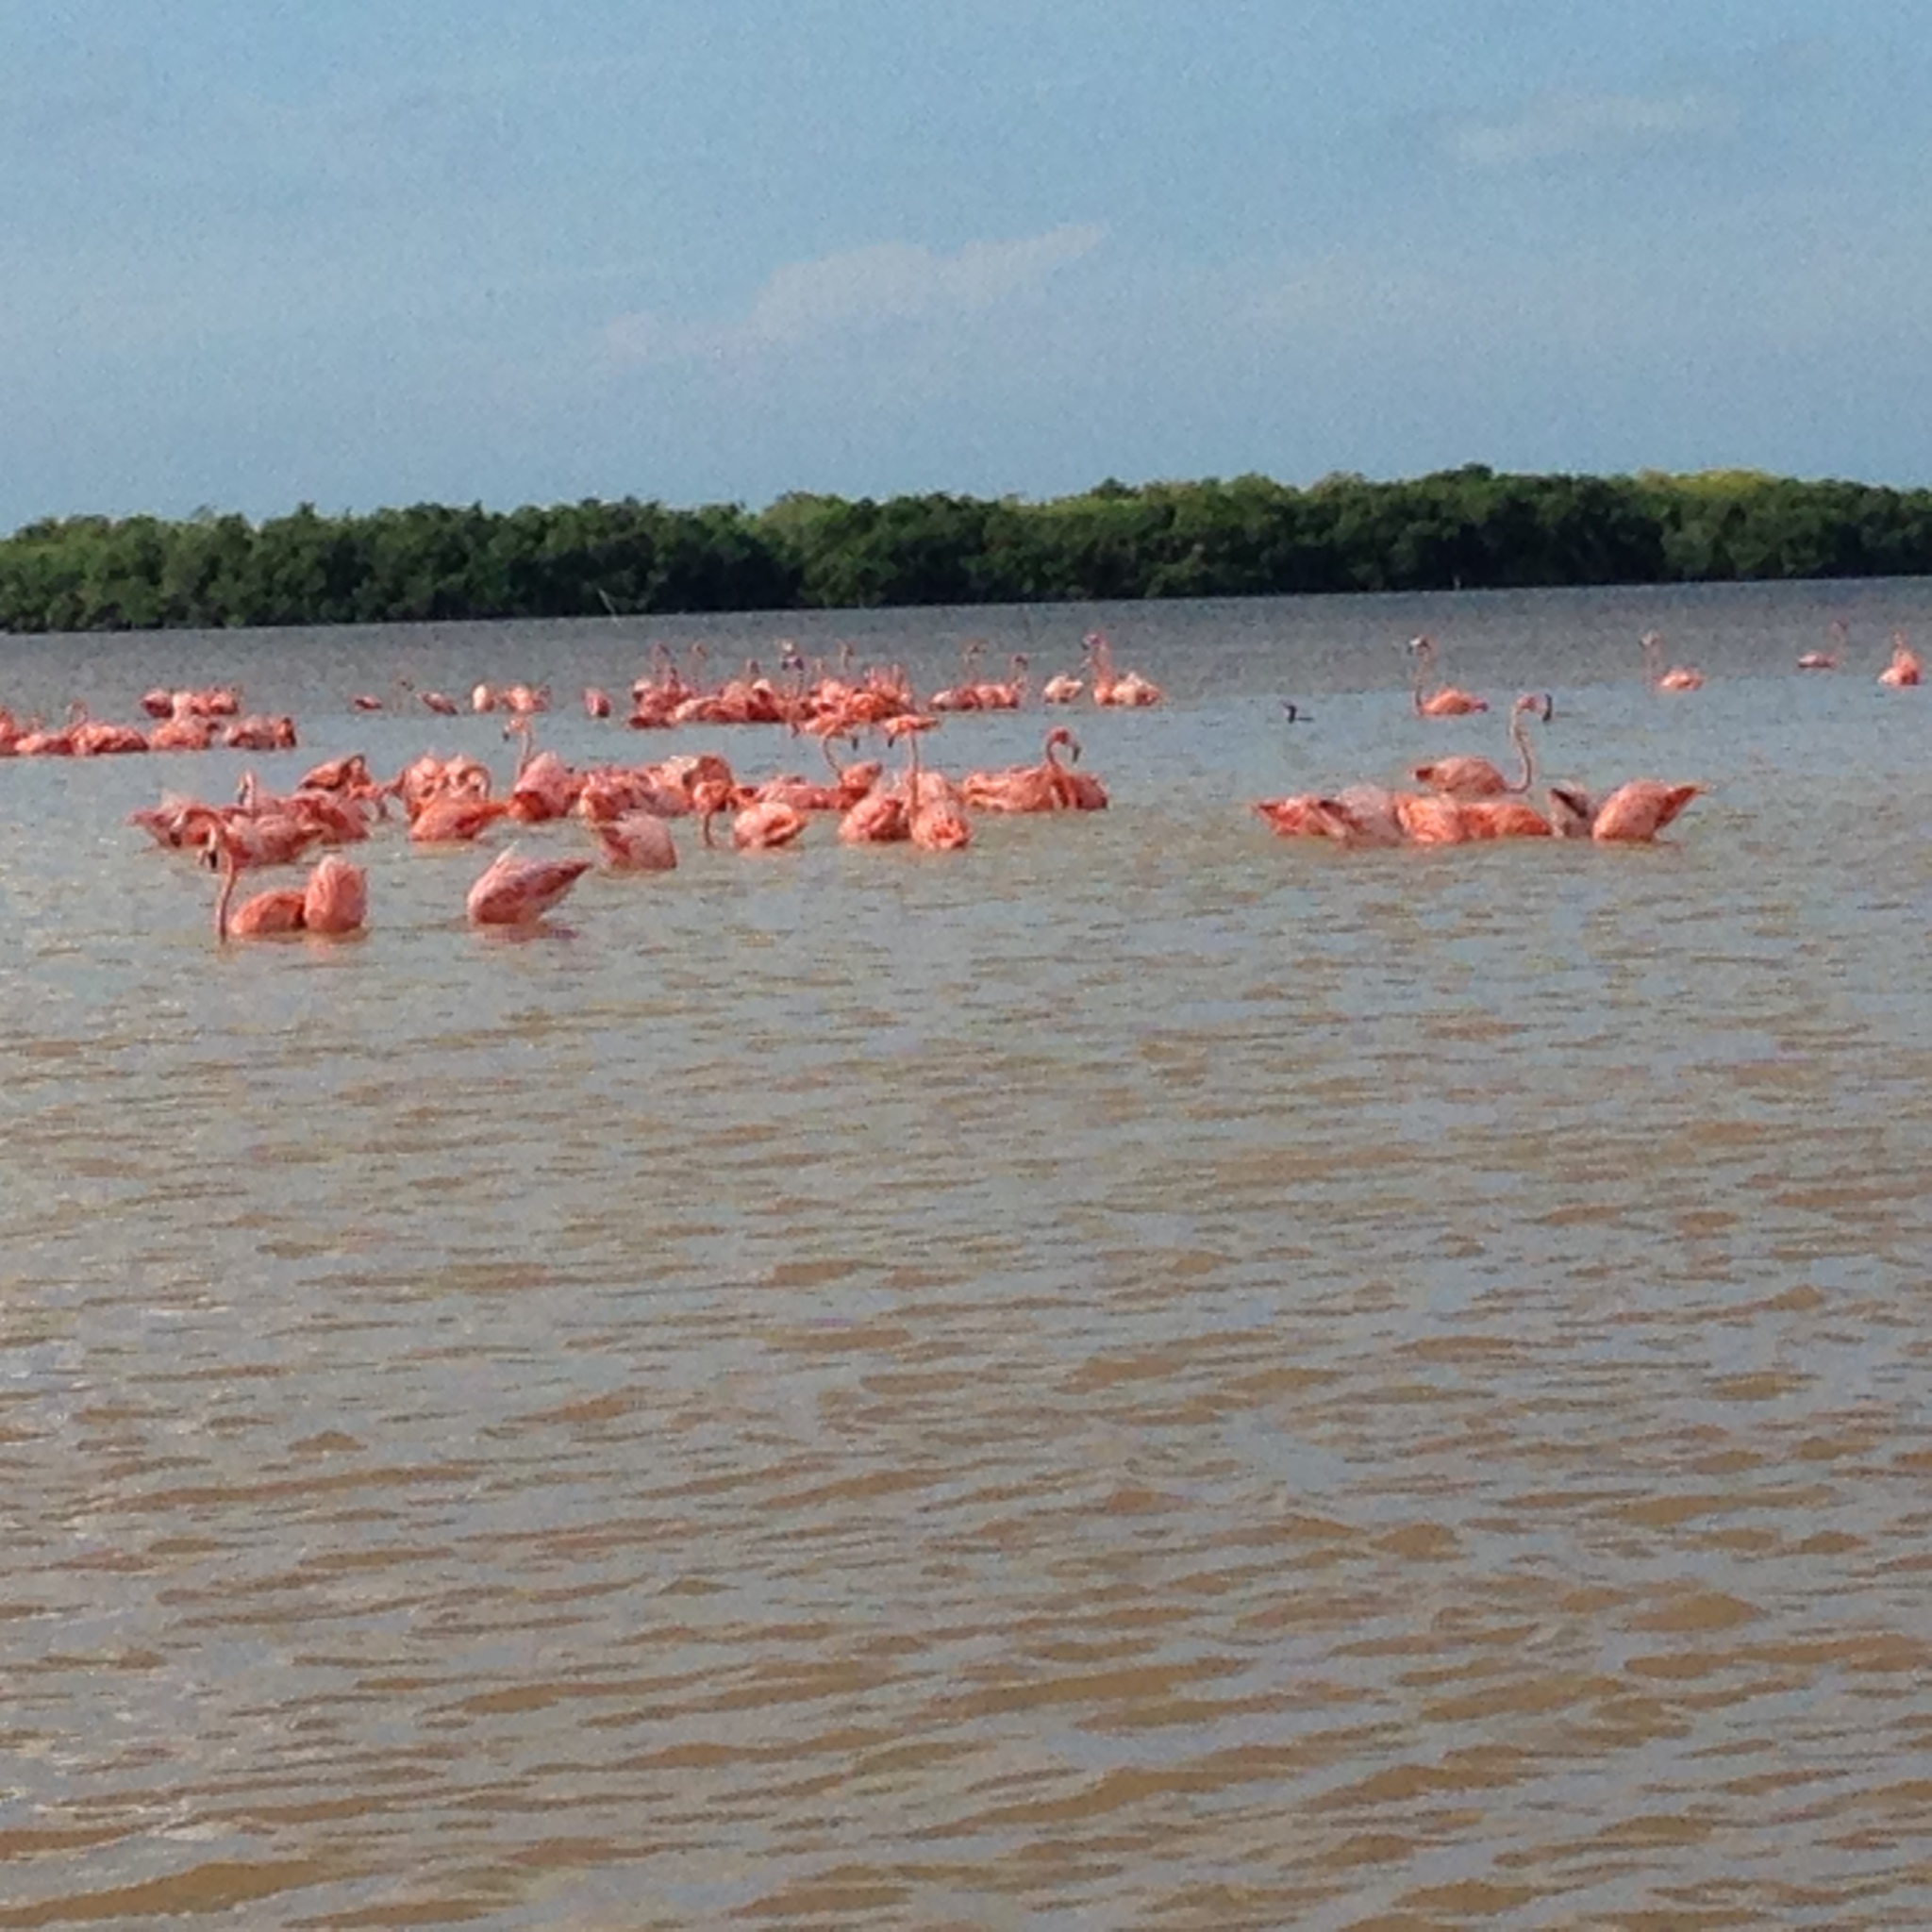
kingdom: Animalia
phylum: Chordata
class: Aves
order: Phoenicopteriformes
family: Phoenicopteridae
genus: Phoenicopterus
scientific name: Phoenicopterus ruber
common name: American flamingo
